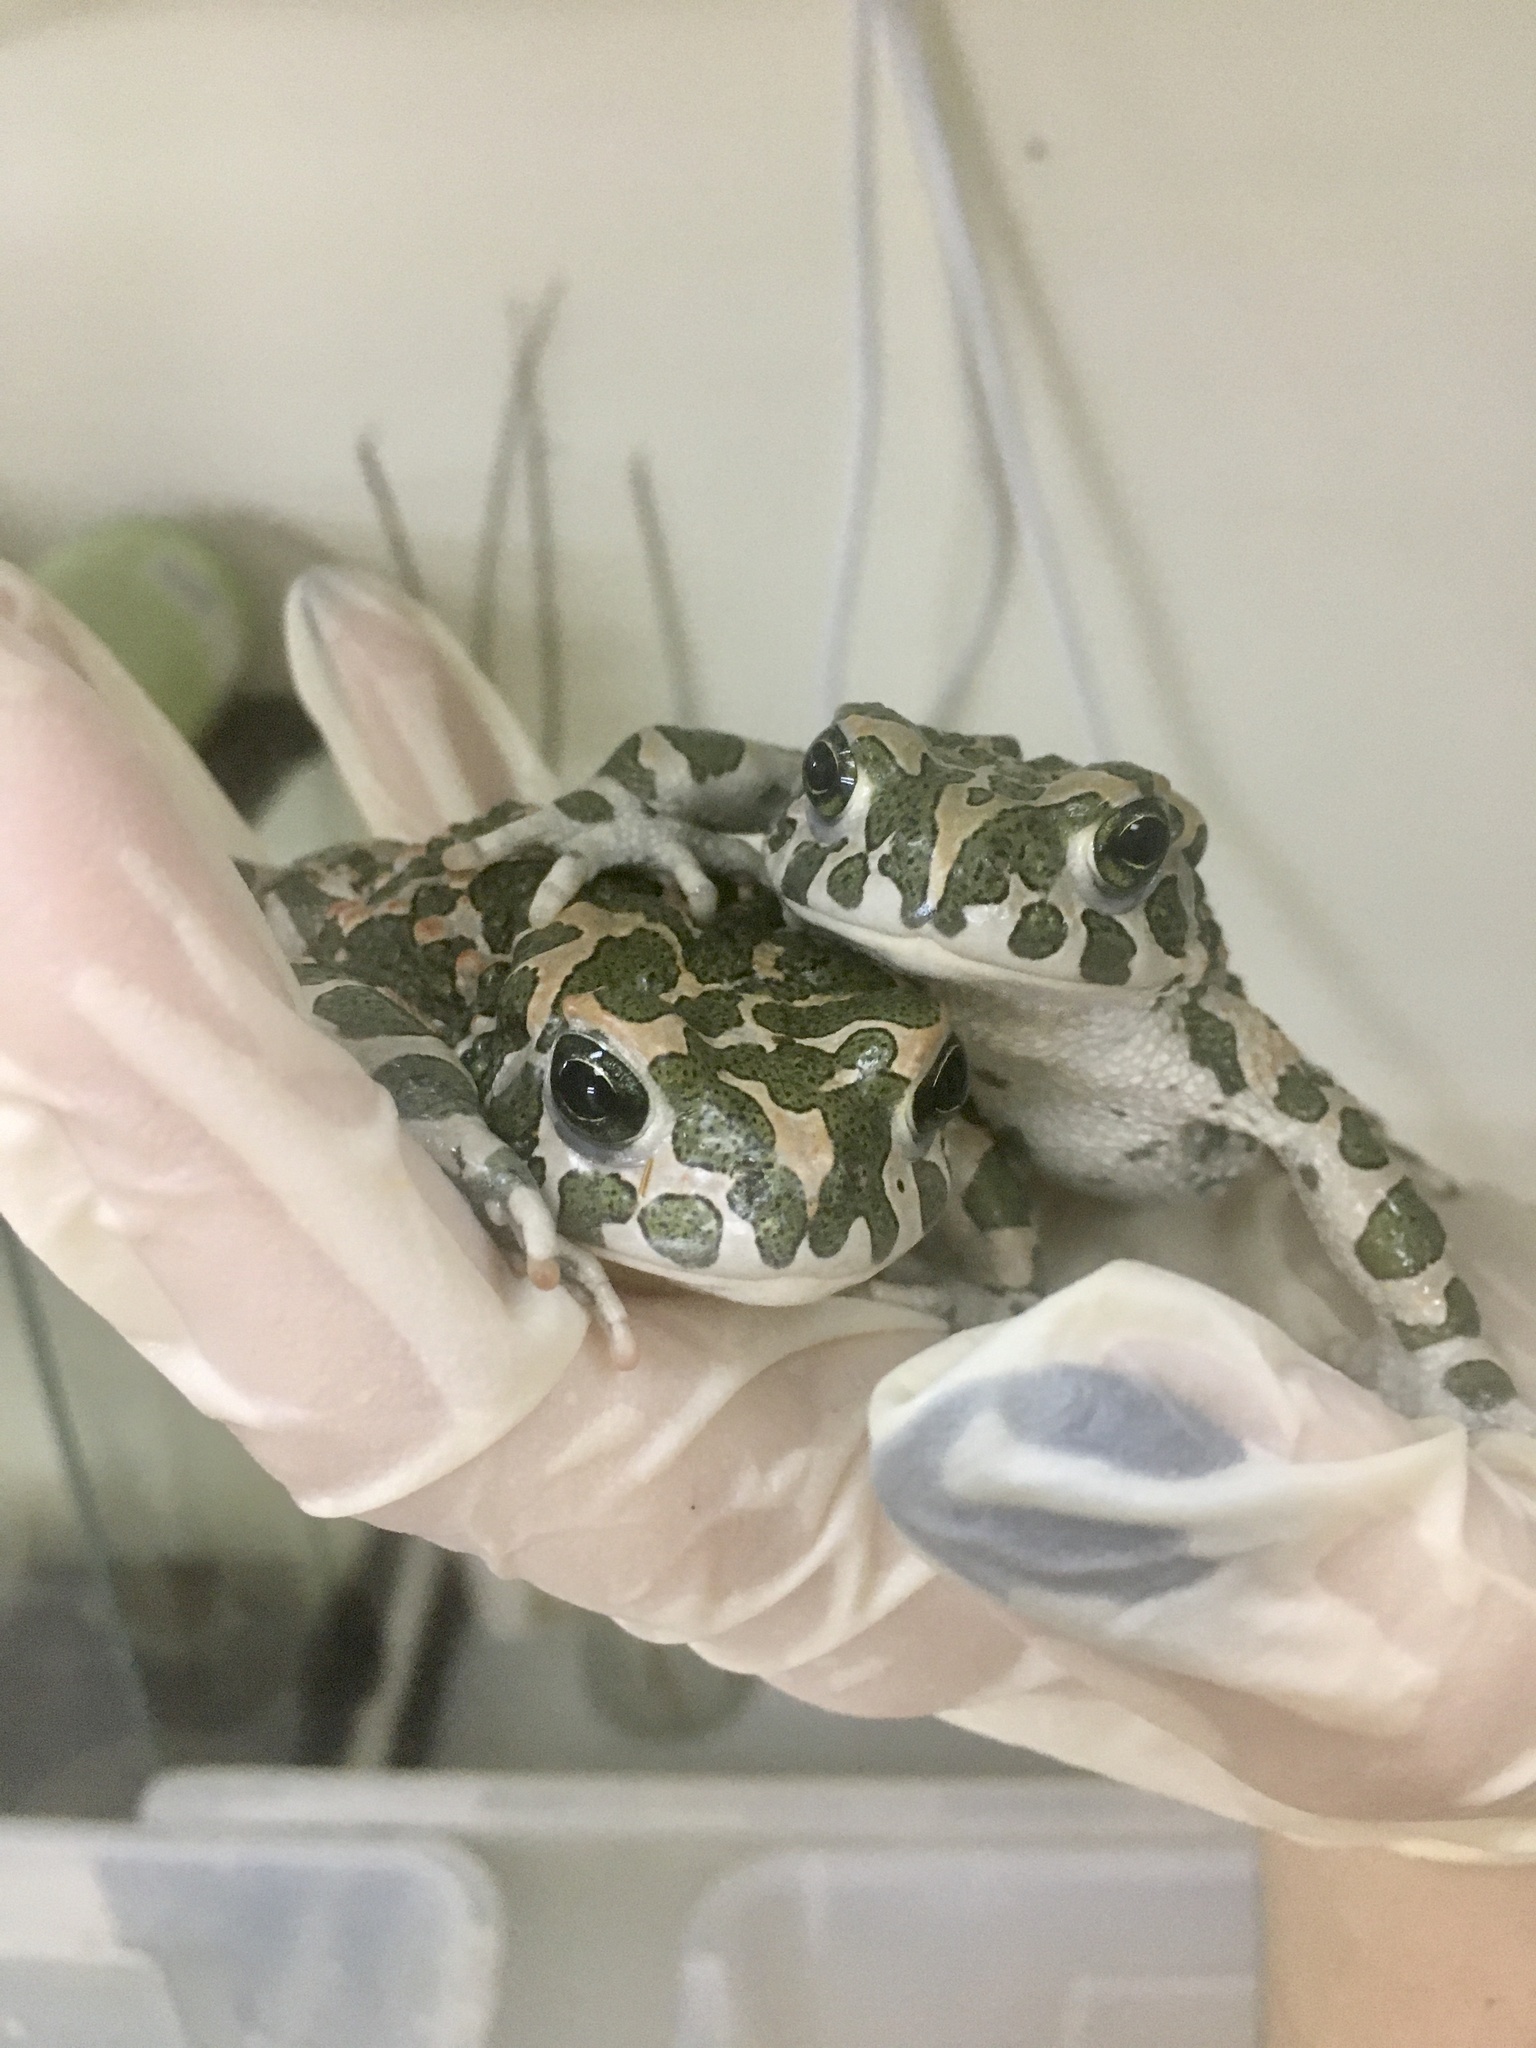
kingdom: Animalia
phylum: Chordata
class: Amphibia
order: Anura
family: Bufonidae
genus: Bufotes
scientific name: Bufotes viridis
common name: European green toad
